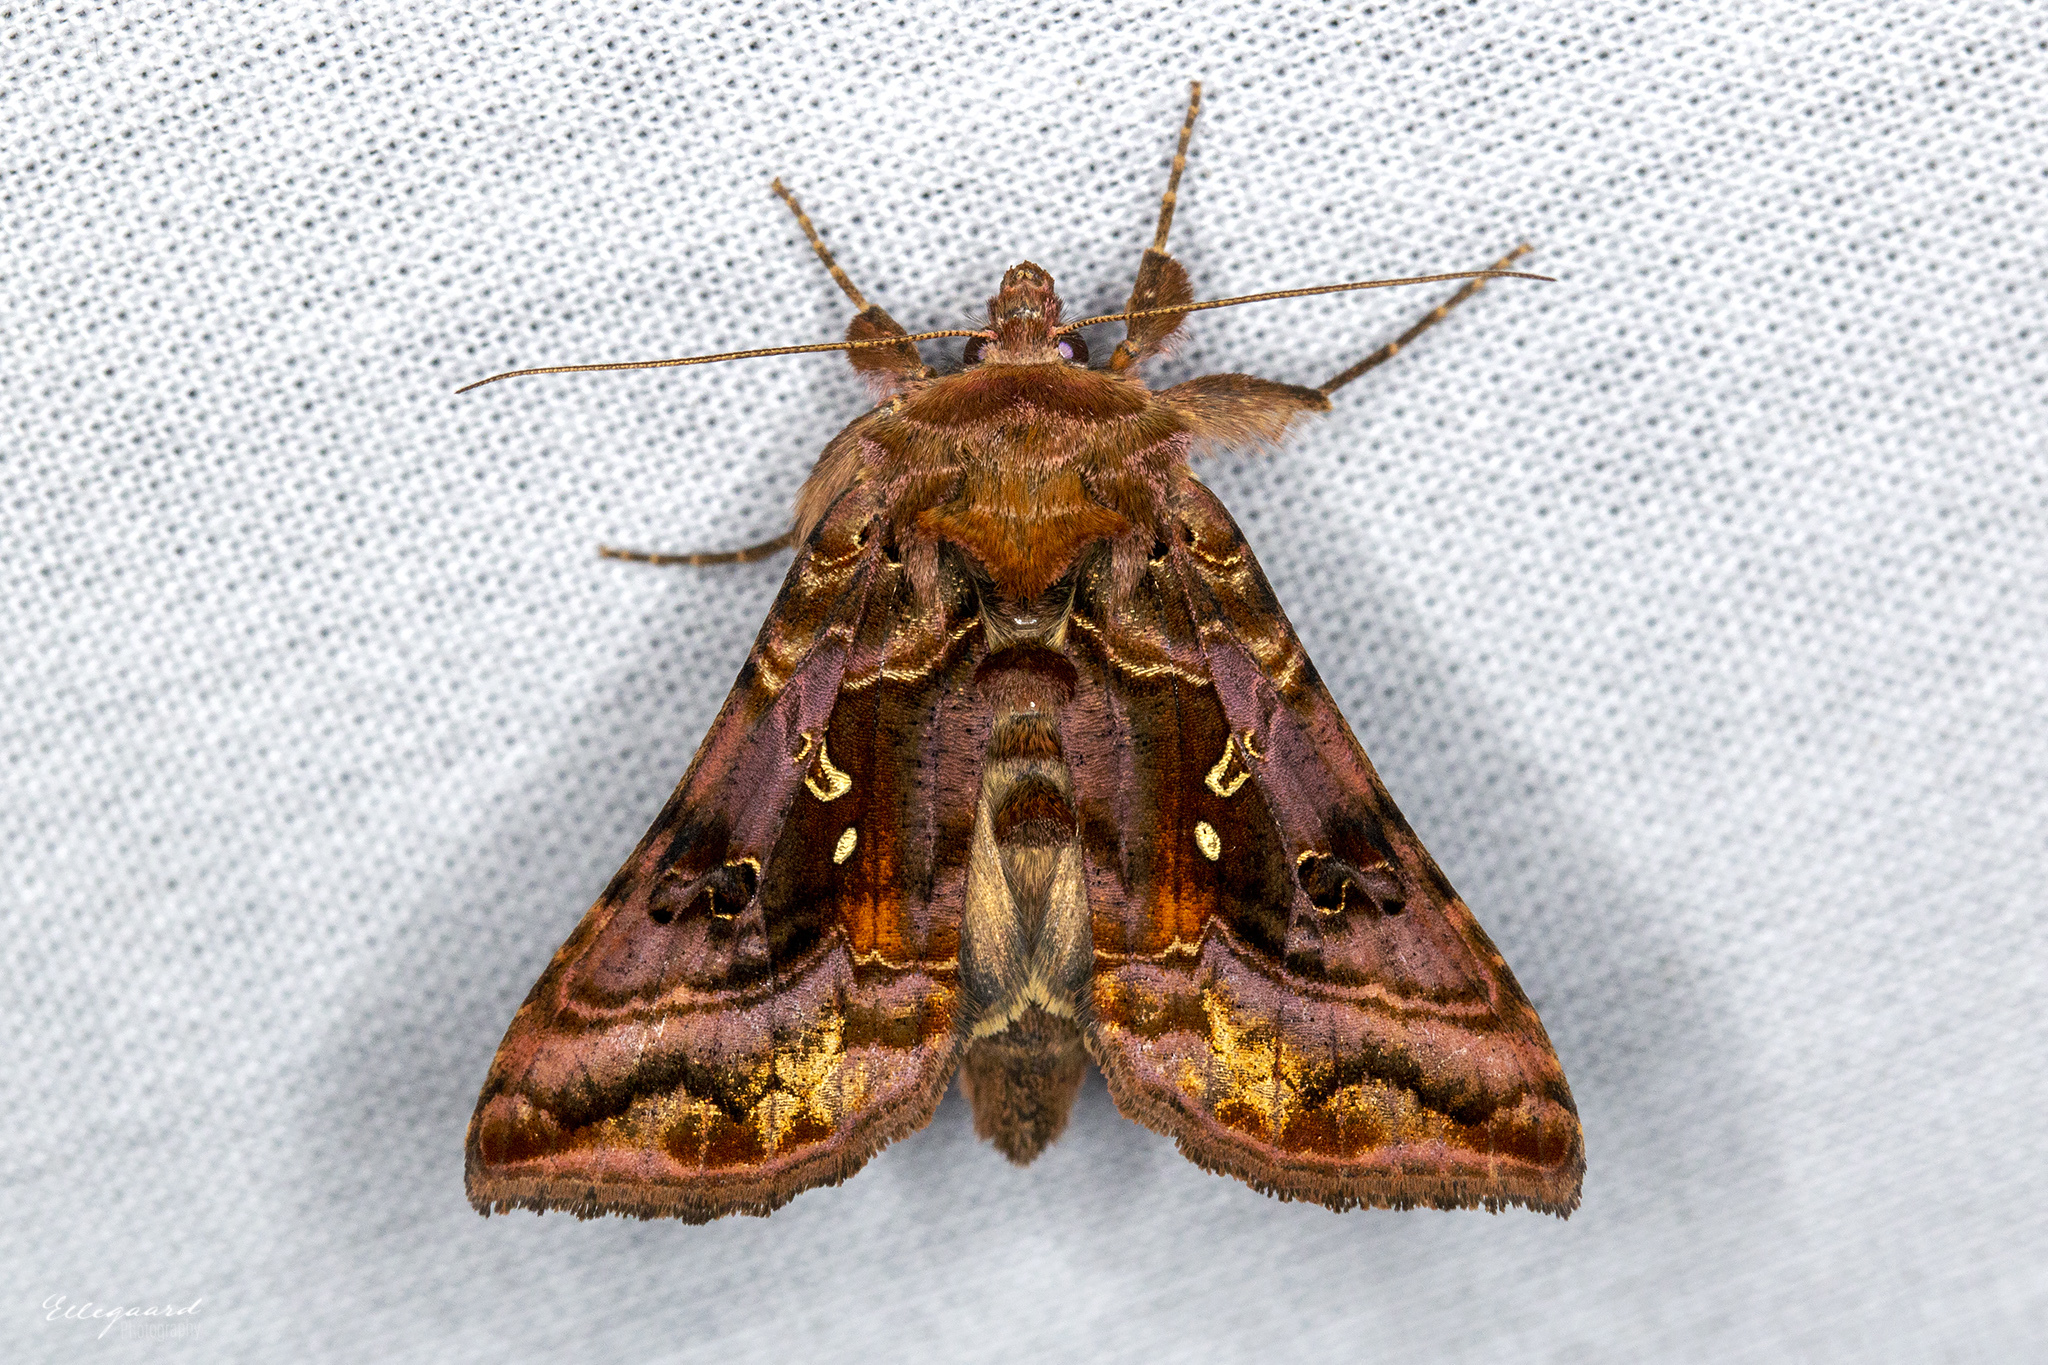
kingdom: Animalia
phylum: Arthropoda
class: Insecta
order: Lepidoptera
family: Noctuidae
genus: Autographa
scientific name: Autographa pulchrina
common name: Beautiful golden y
